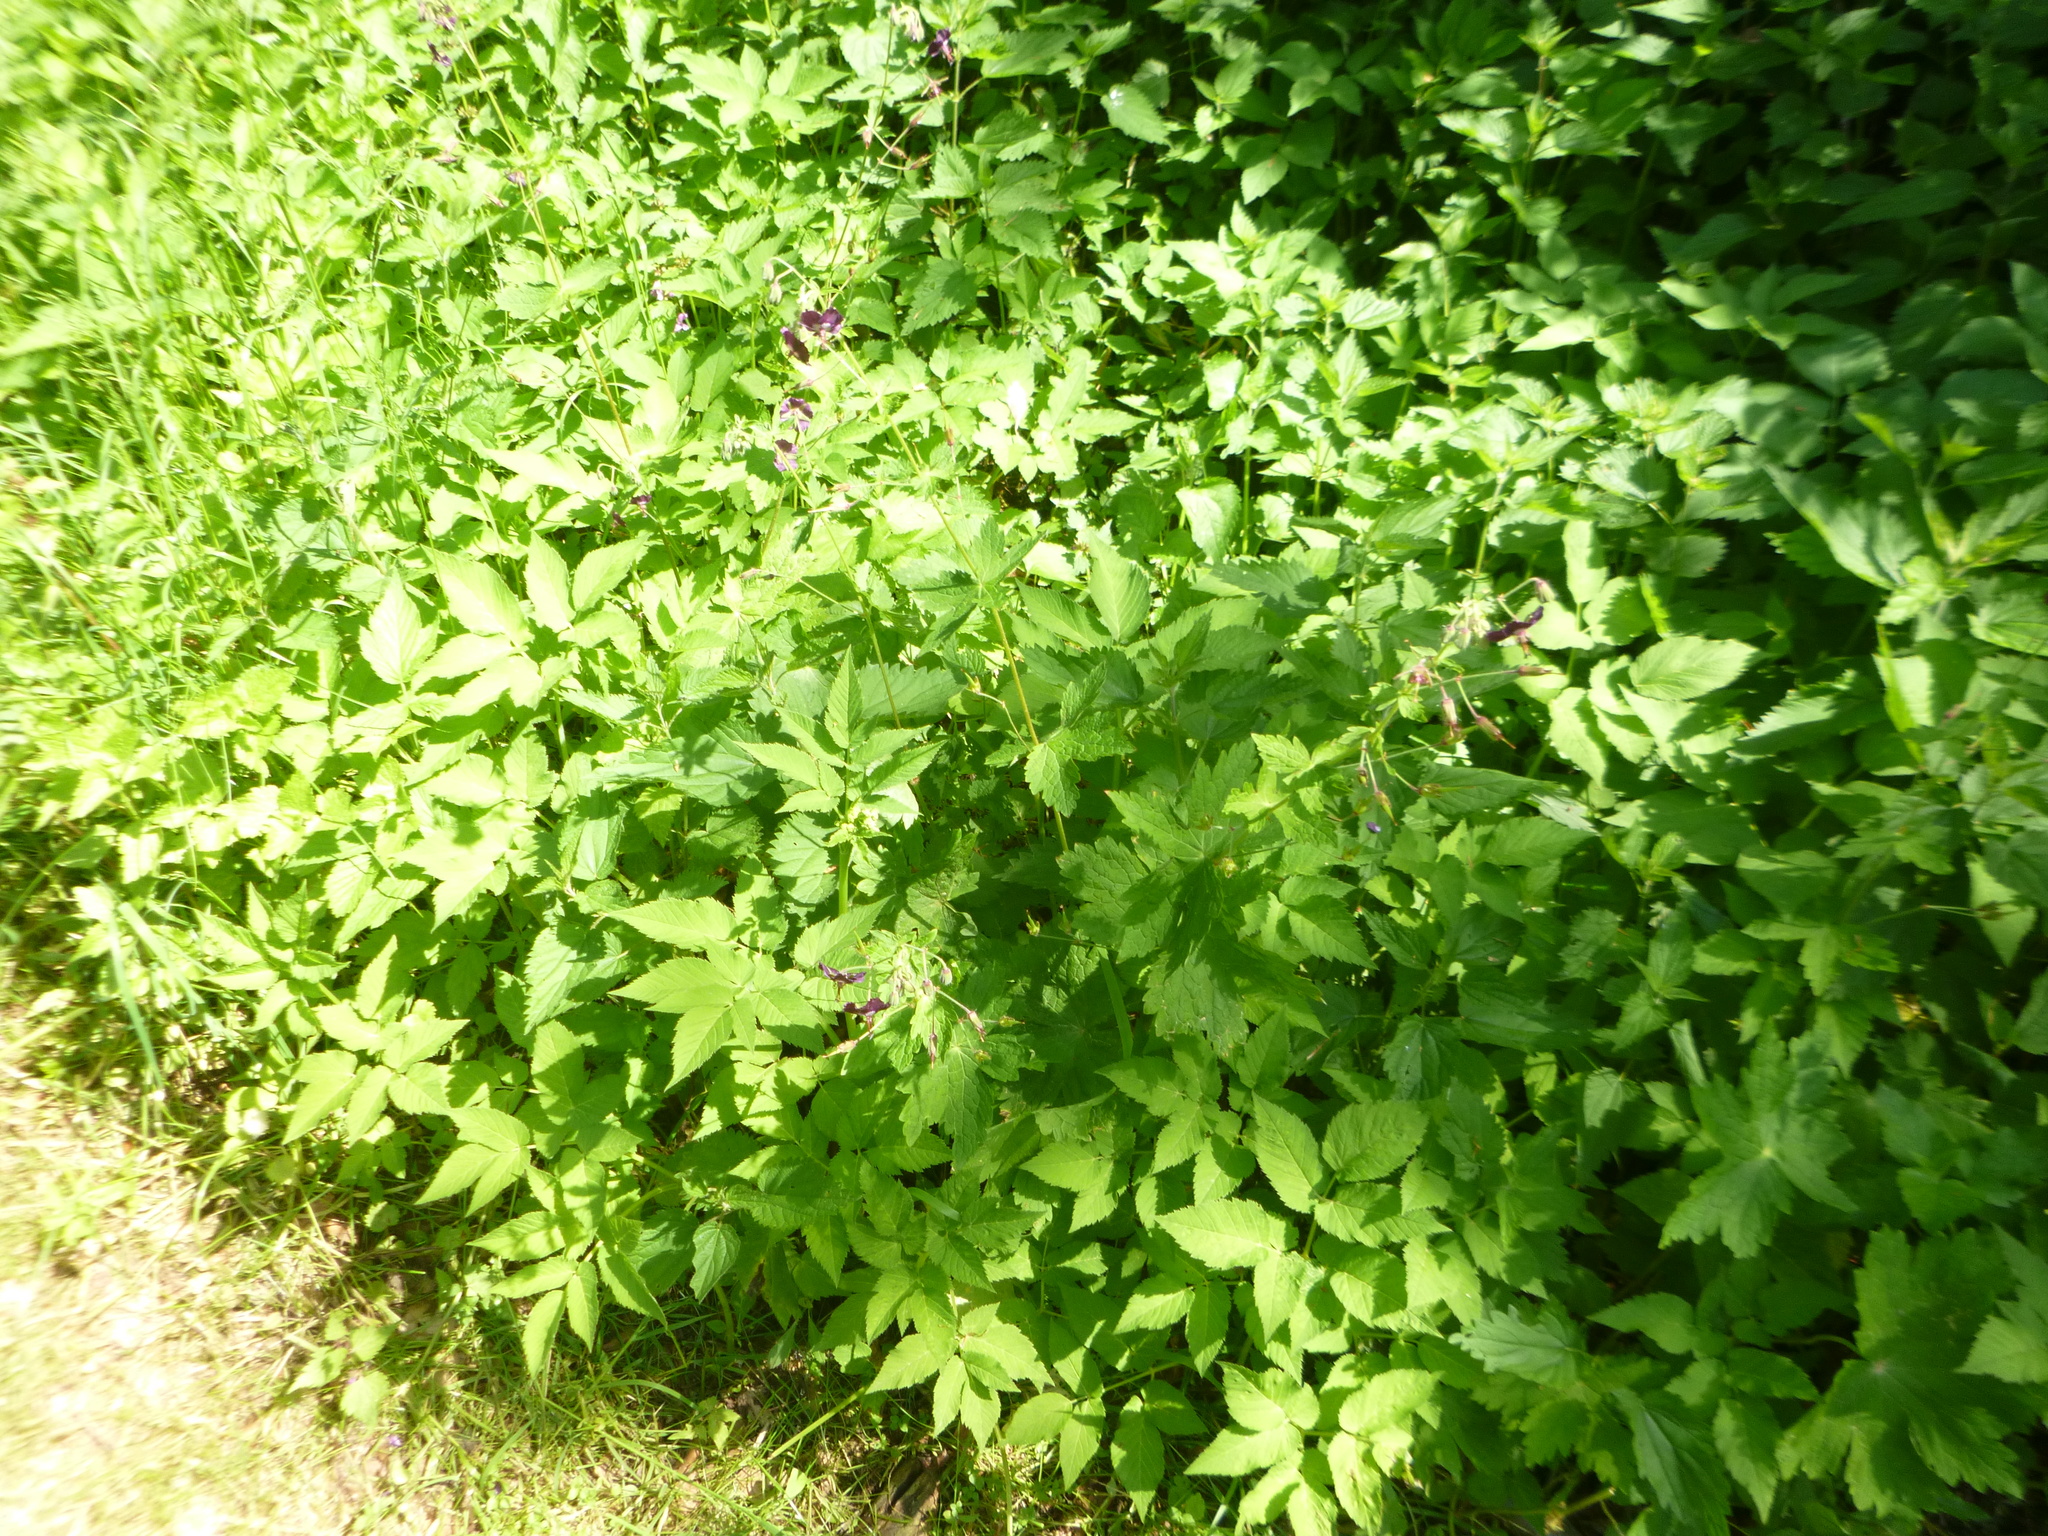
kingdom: Plantae
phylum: Tracheophyta
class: Magnoliopsida
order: Geraniales
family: Geraniaceae
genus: Geranium
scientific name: Geranium phaeum
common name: Dusky crane's-bill
